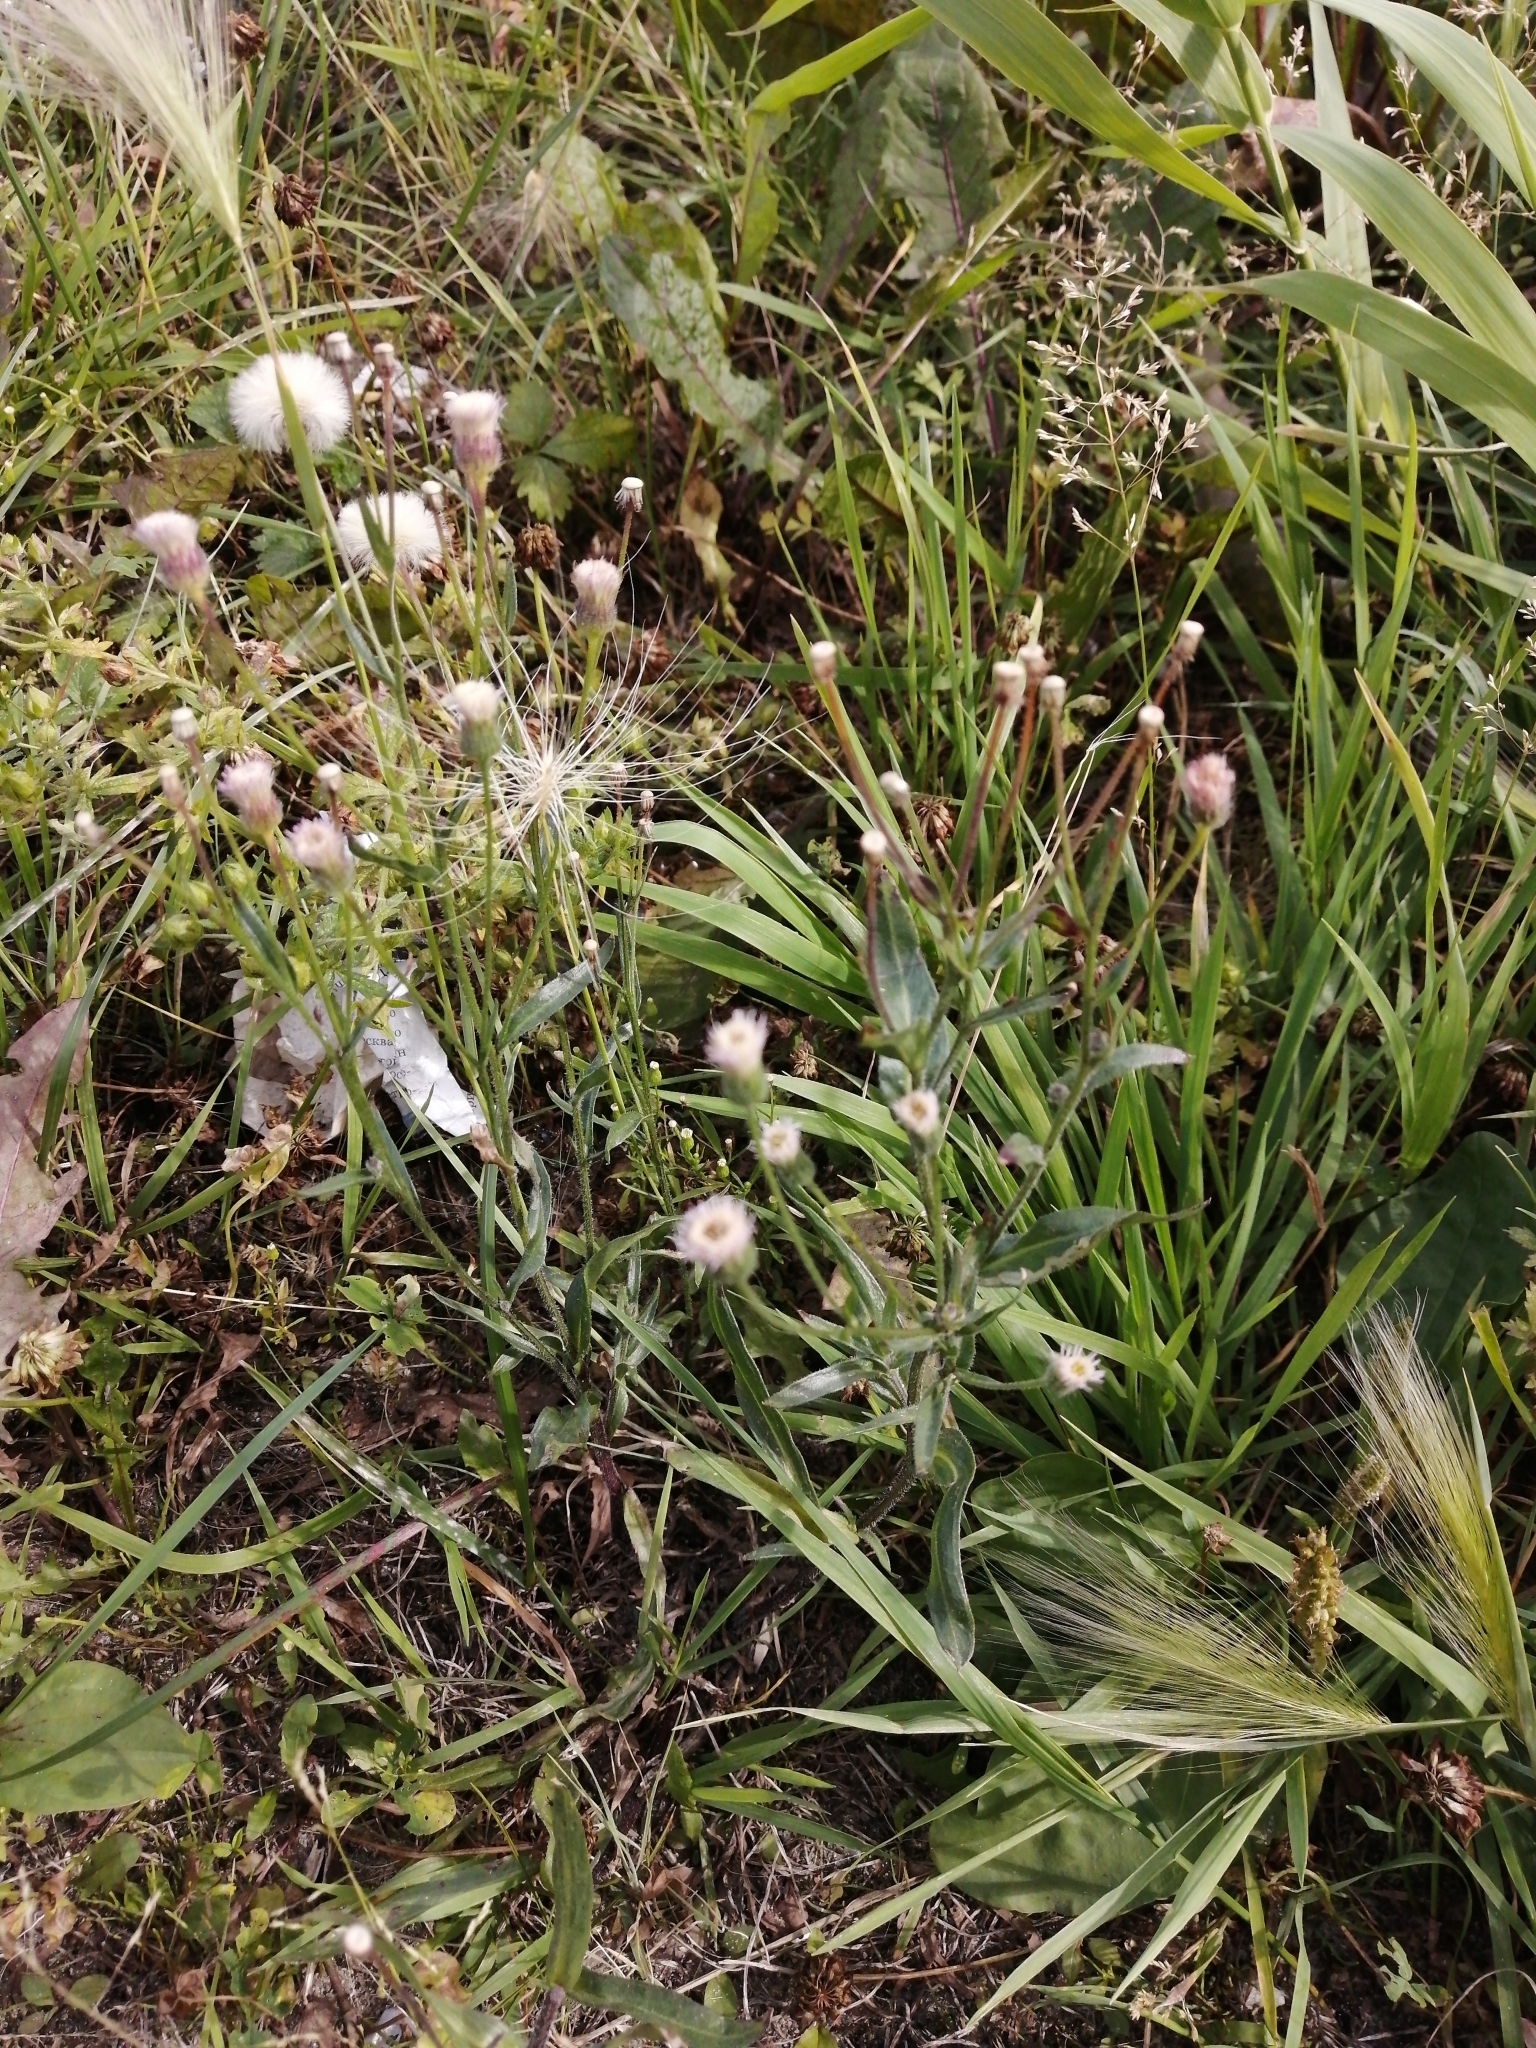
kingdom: Plantae
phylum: Tracheophyta
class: Magnoliopsida
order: Asterales
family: Asteraceae
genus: Erigeron
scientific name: Erigeron acris
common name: Blue fleabane
